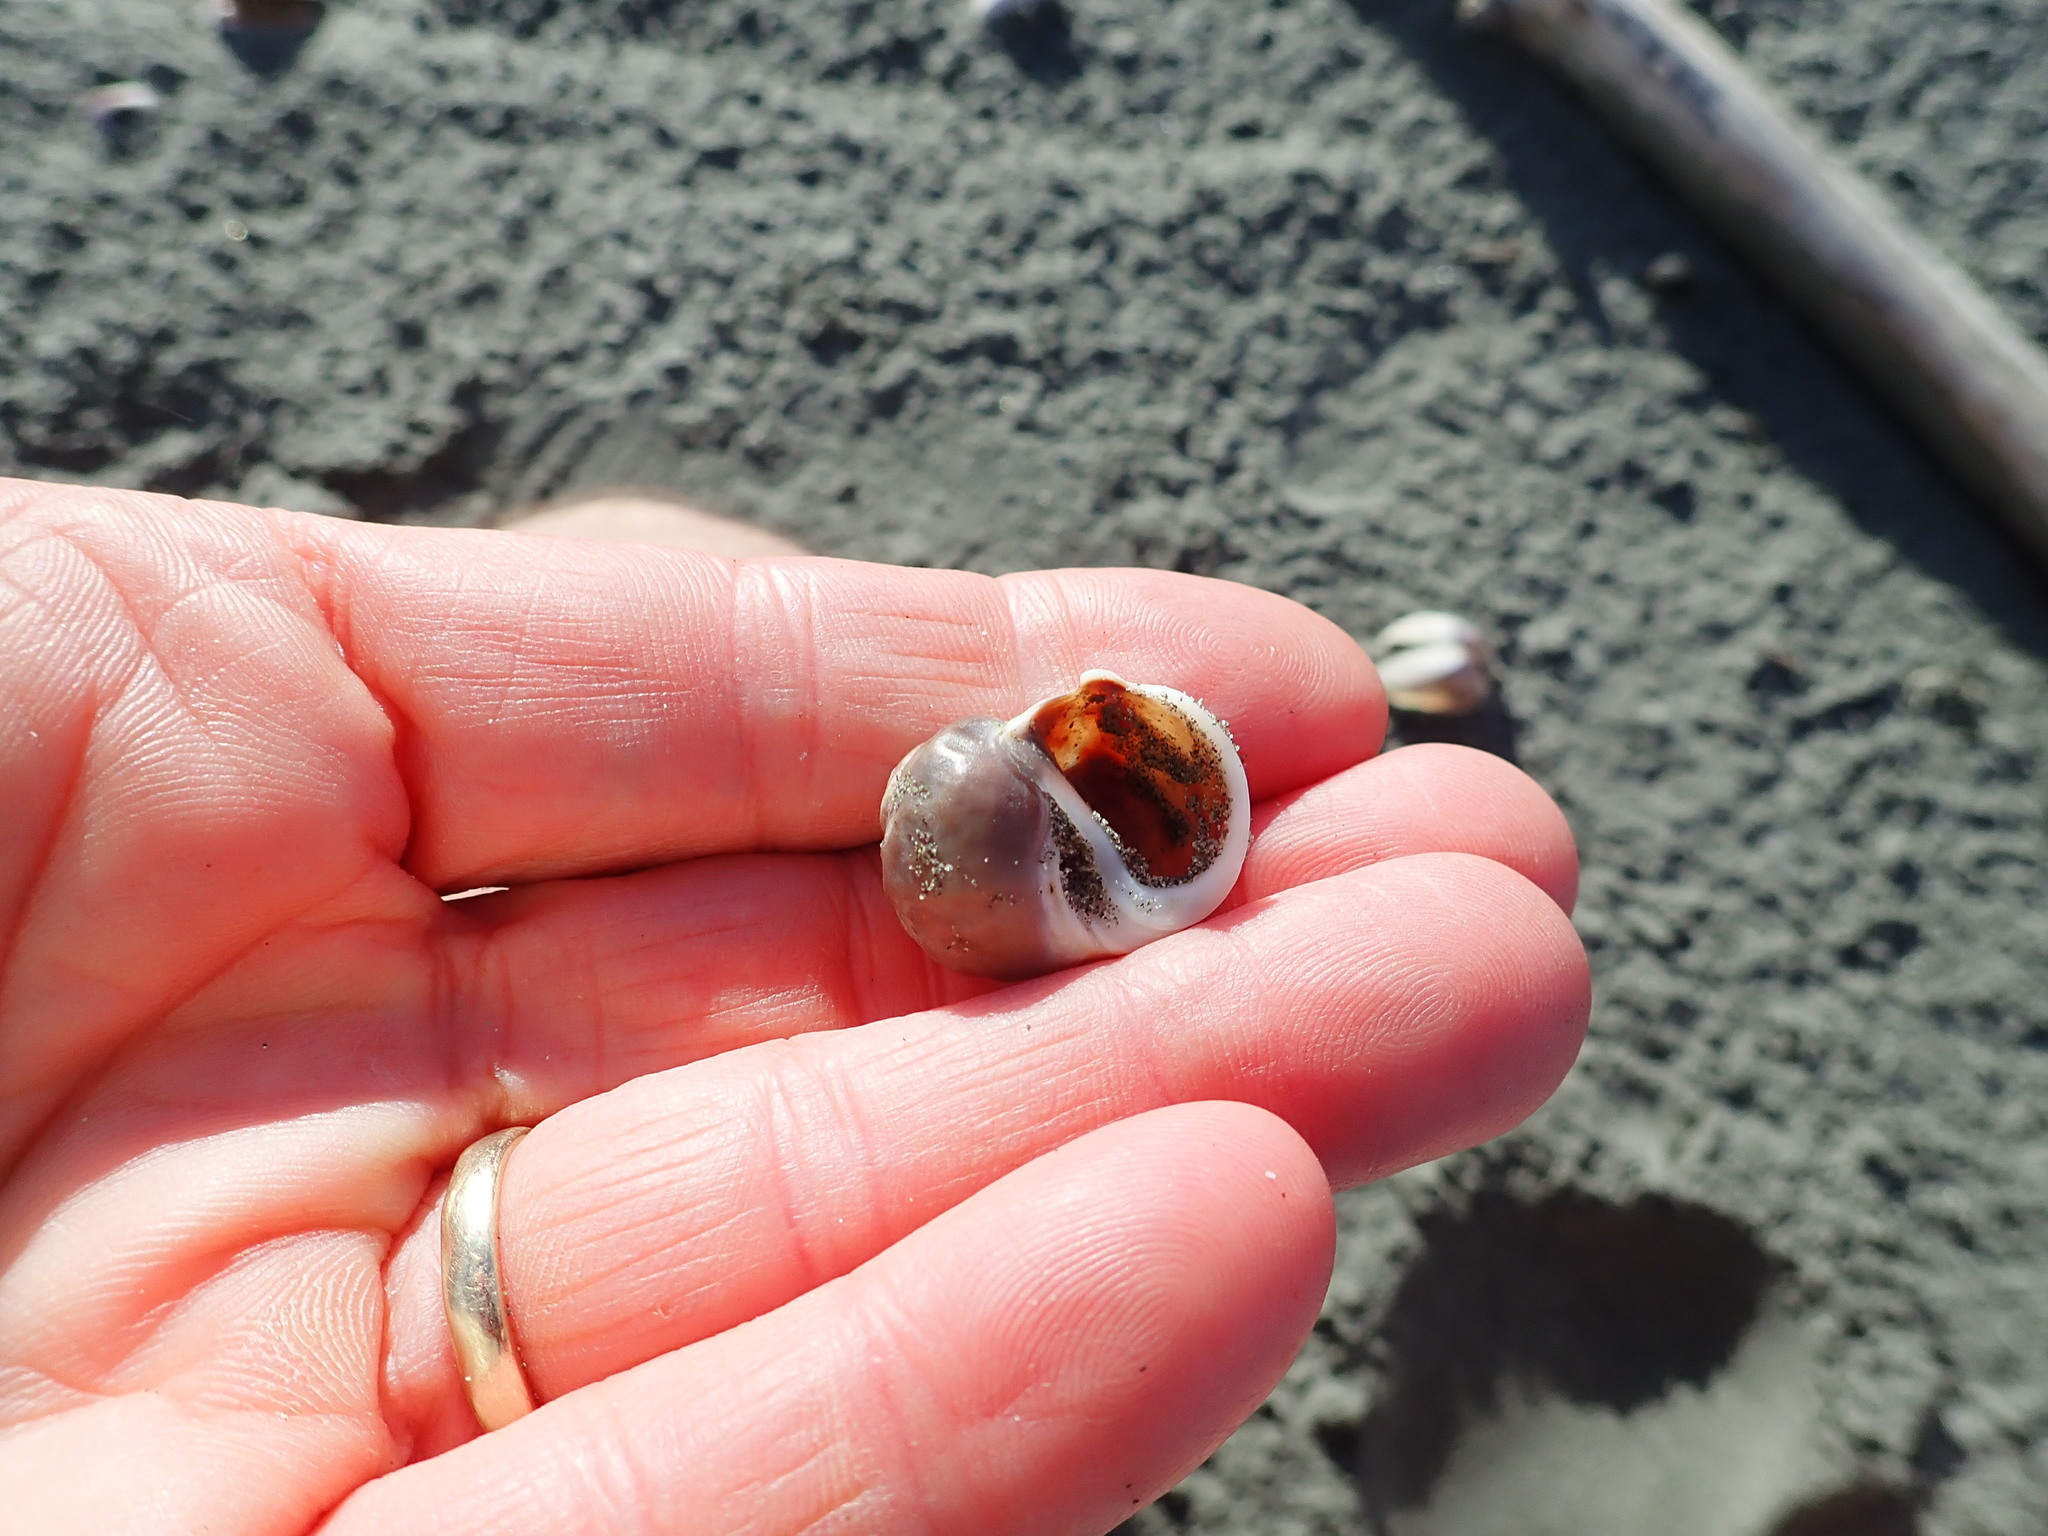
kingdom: Animalia
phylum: Mollusca
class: Gastropoda
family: Amphibolidae
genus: Amphibola
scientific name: Amphibola crenata
